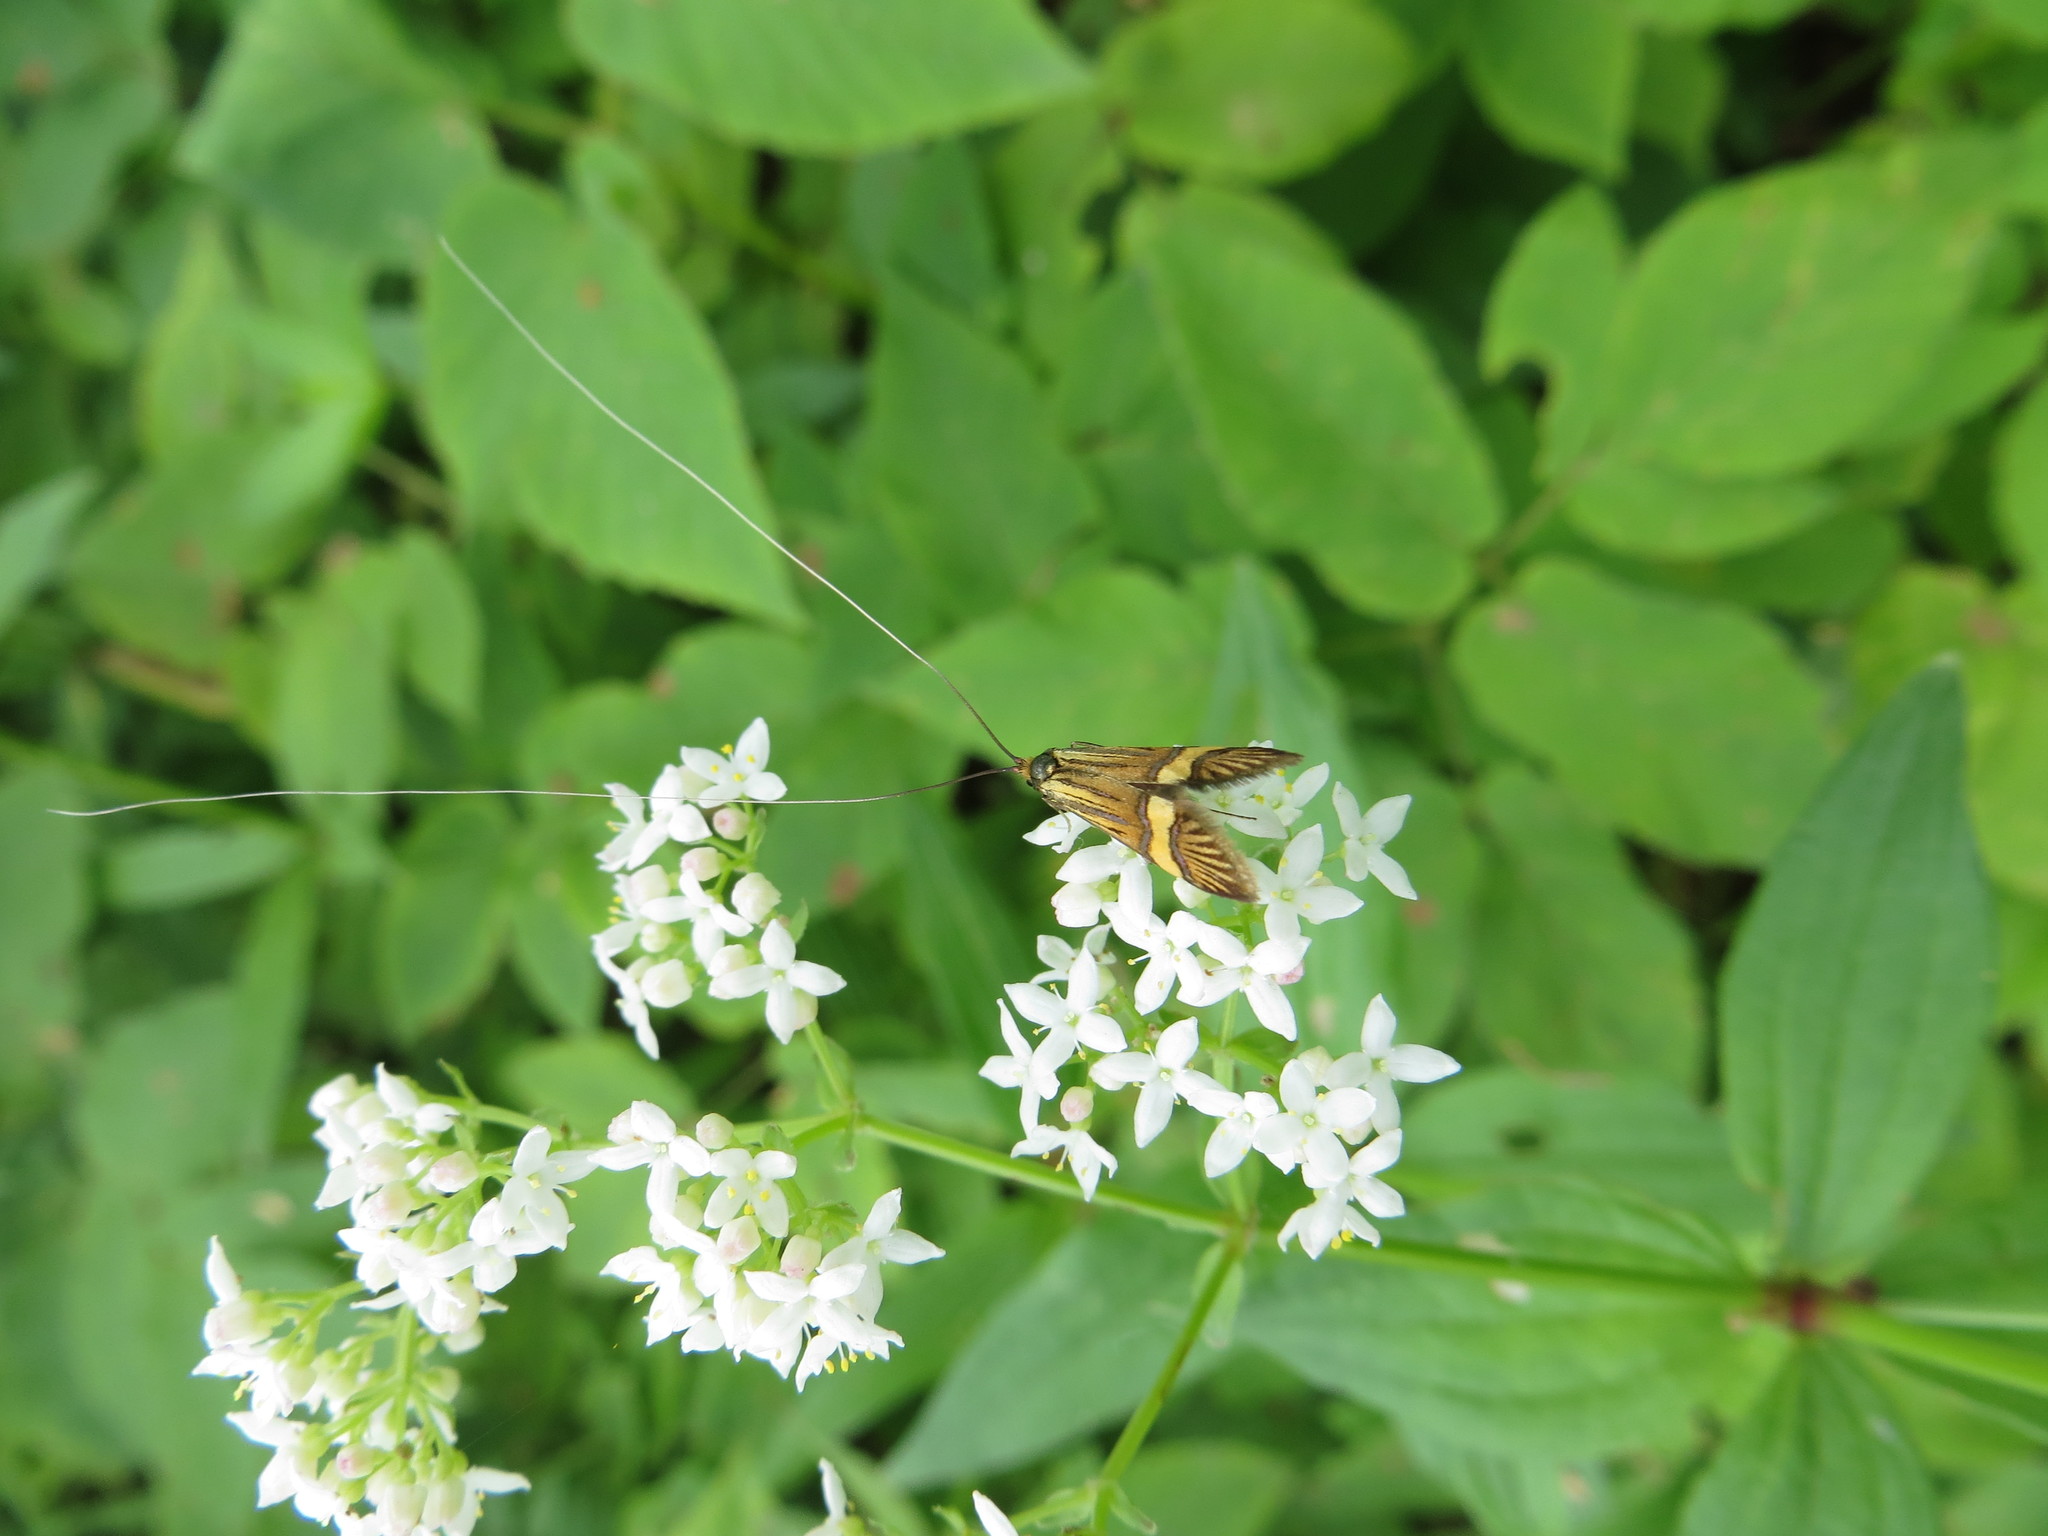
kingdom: Animalia
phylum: Arthropoda
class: Insecta
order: Lepidoptera
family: Adelidae
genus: Nemophora
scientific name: Nemophora degeerella
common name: Yellow-barred long-horn
